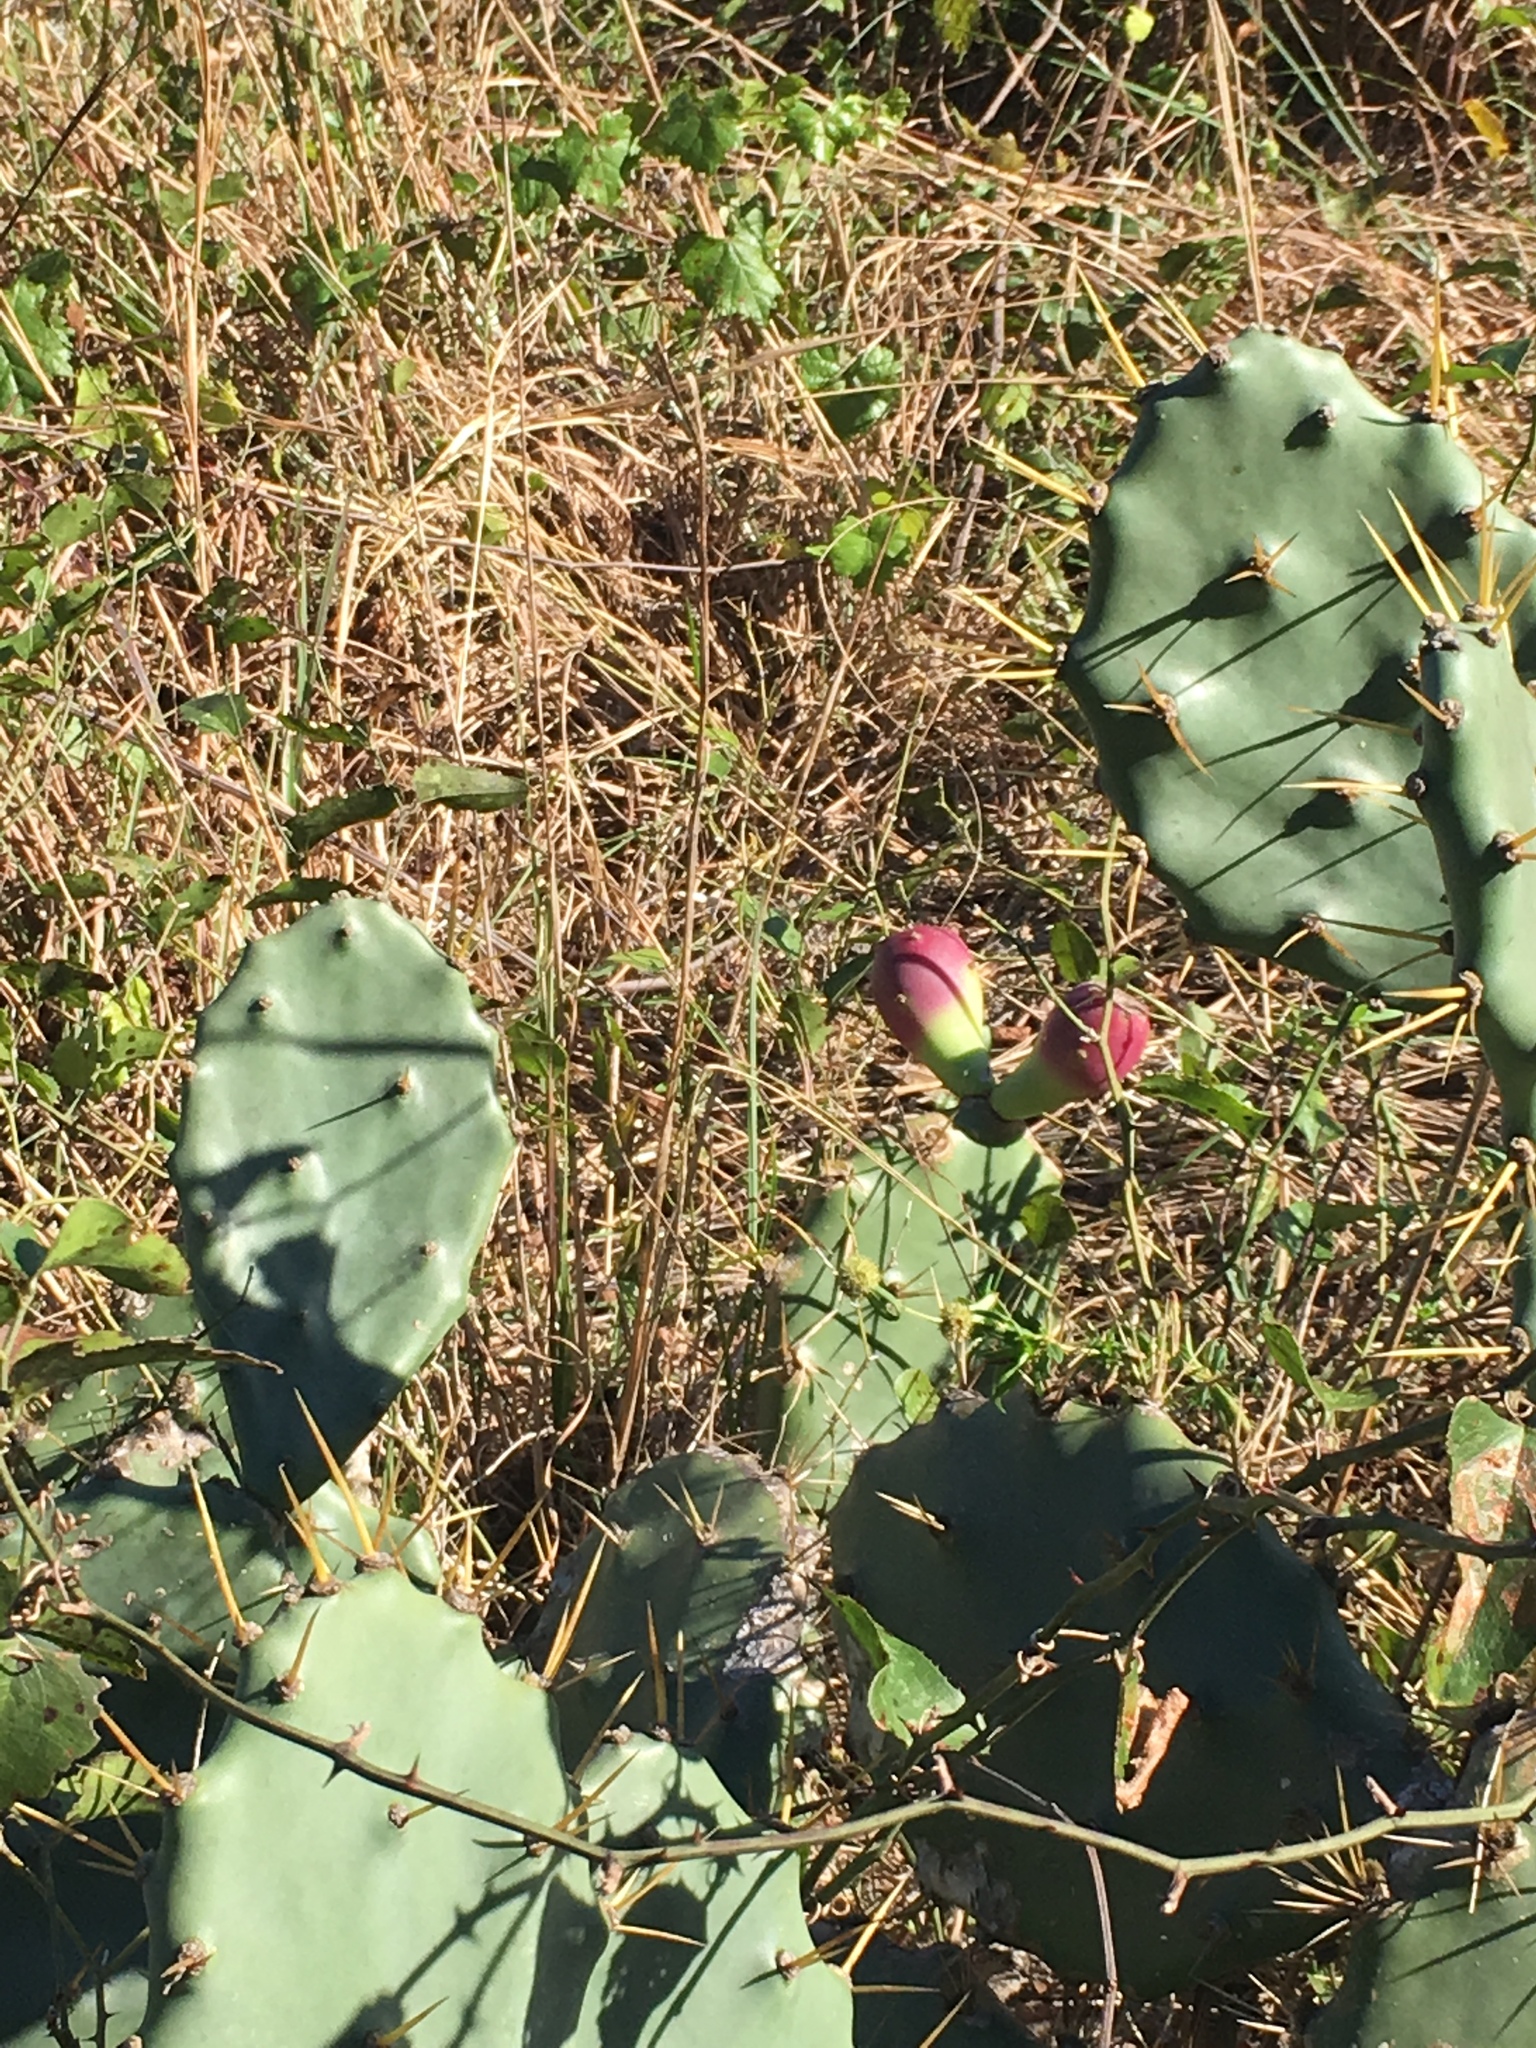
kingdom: Plantae
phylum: Tracheophyta
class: Magnoliopsida
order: Caryophyllales
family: Cactaceae
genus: Opuntia
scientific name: Opuntia stricta
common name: Erect pricklypear
